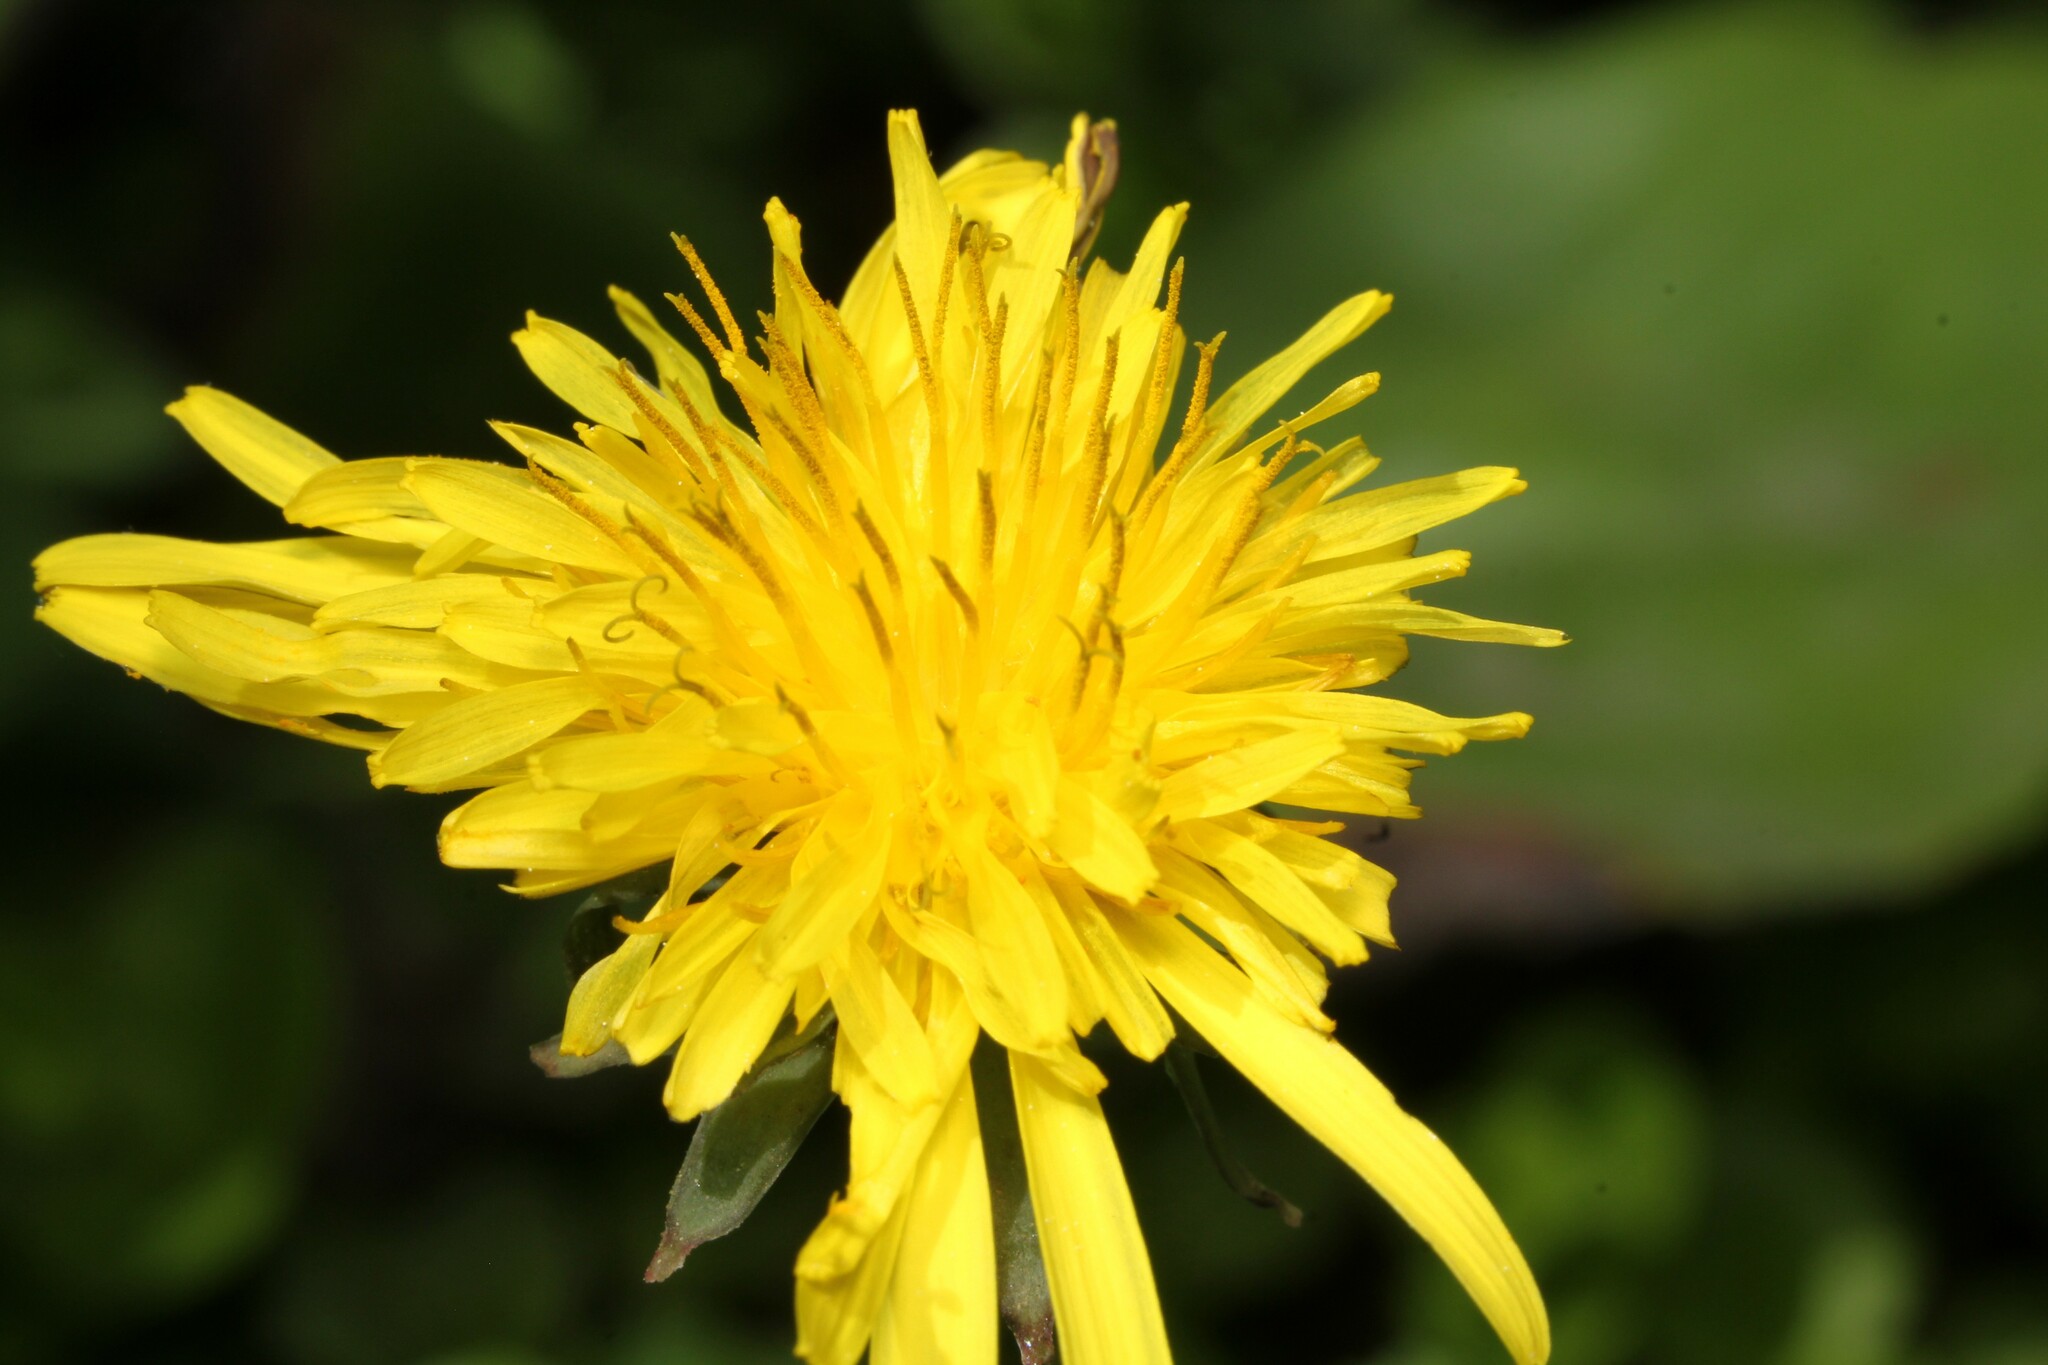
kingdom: Plantae
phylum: Tracheophyta
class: Magnoliopsida
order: Asterales
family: Asteraceae
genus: Taraxacum
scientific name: Taraxacum officinale
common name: Common dandelion
